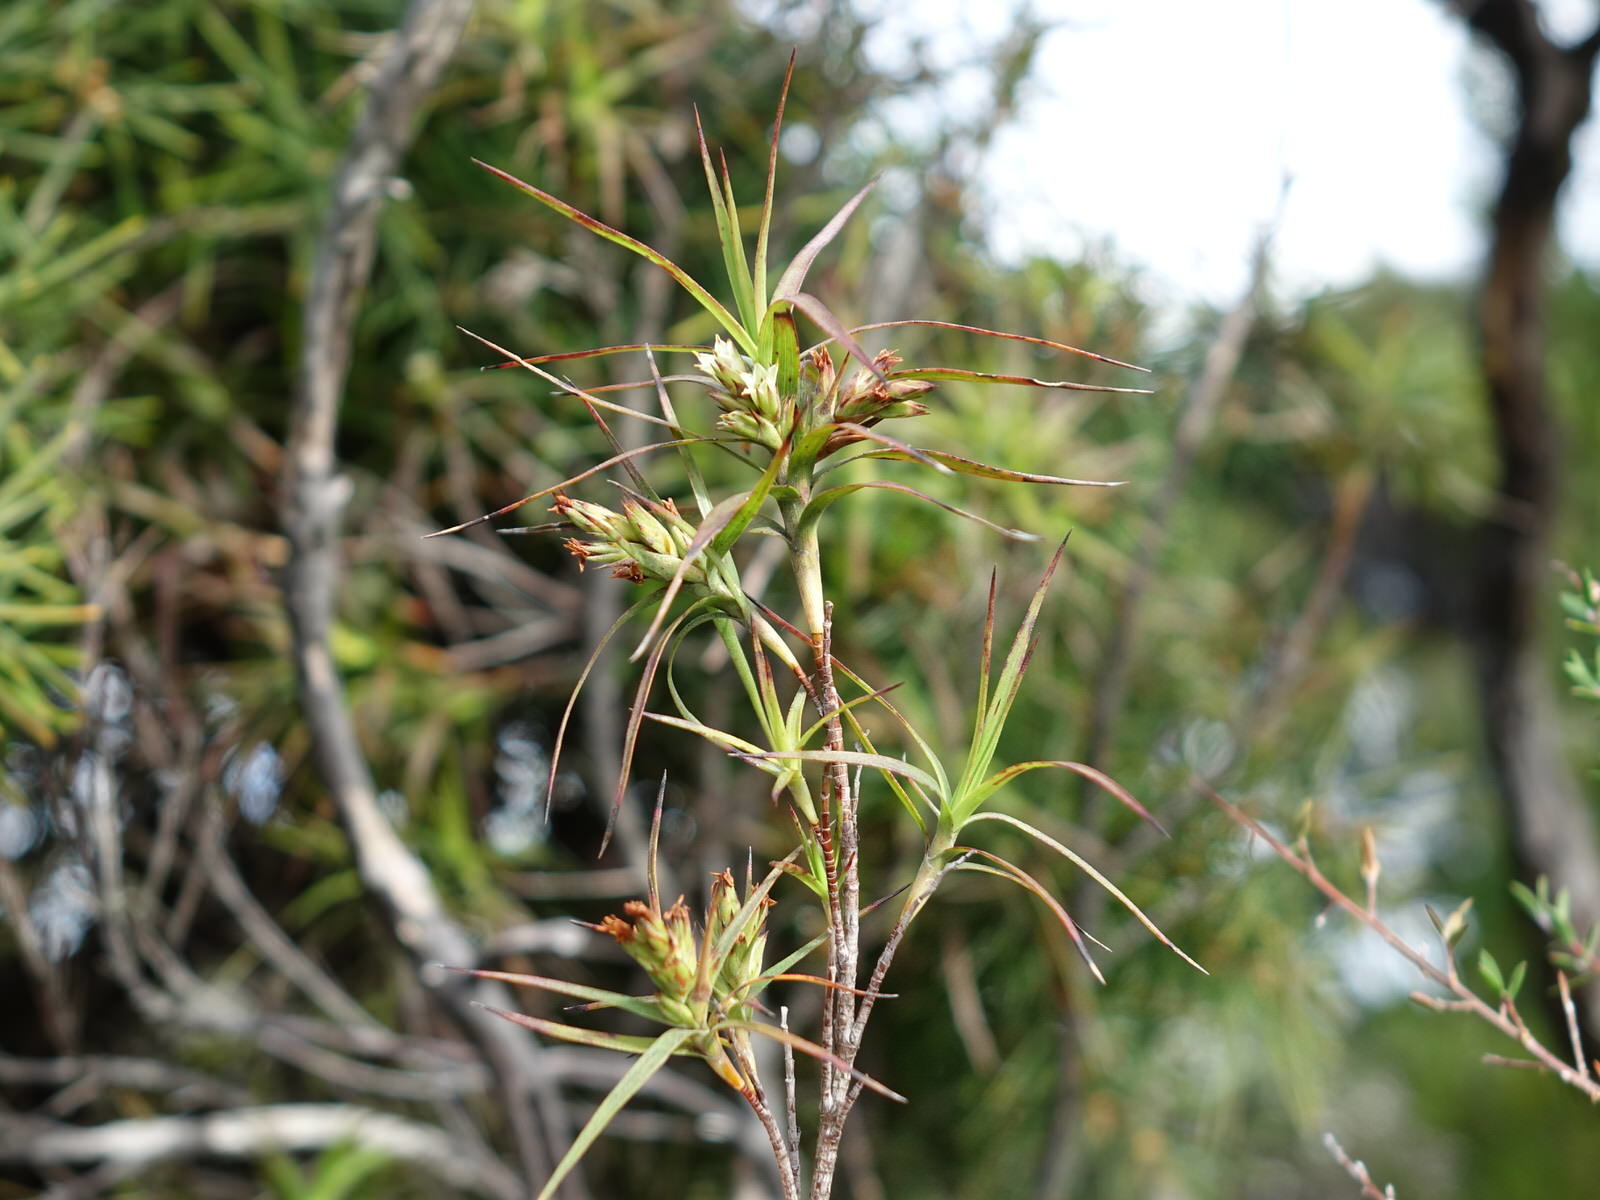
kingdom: Plantae
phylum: Tracheophyta
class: Magnoliopsida
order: Ericales
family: Ericaceae
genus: Dracophyllum
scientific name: Dracophyllum sinclairii
